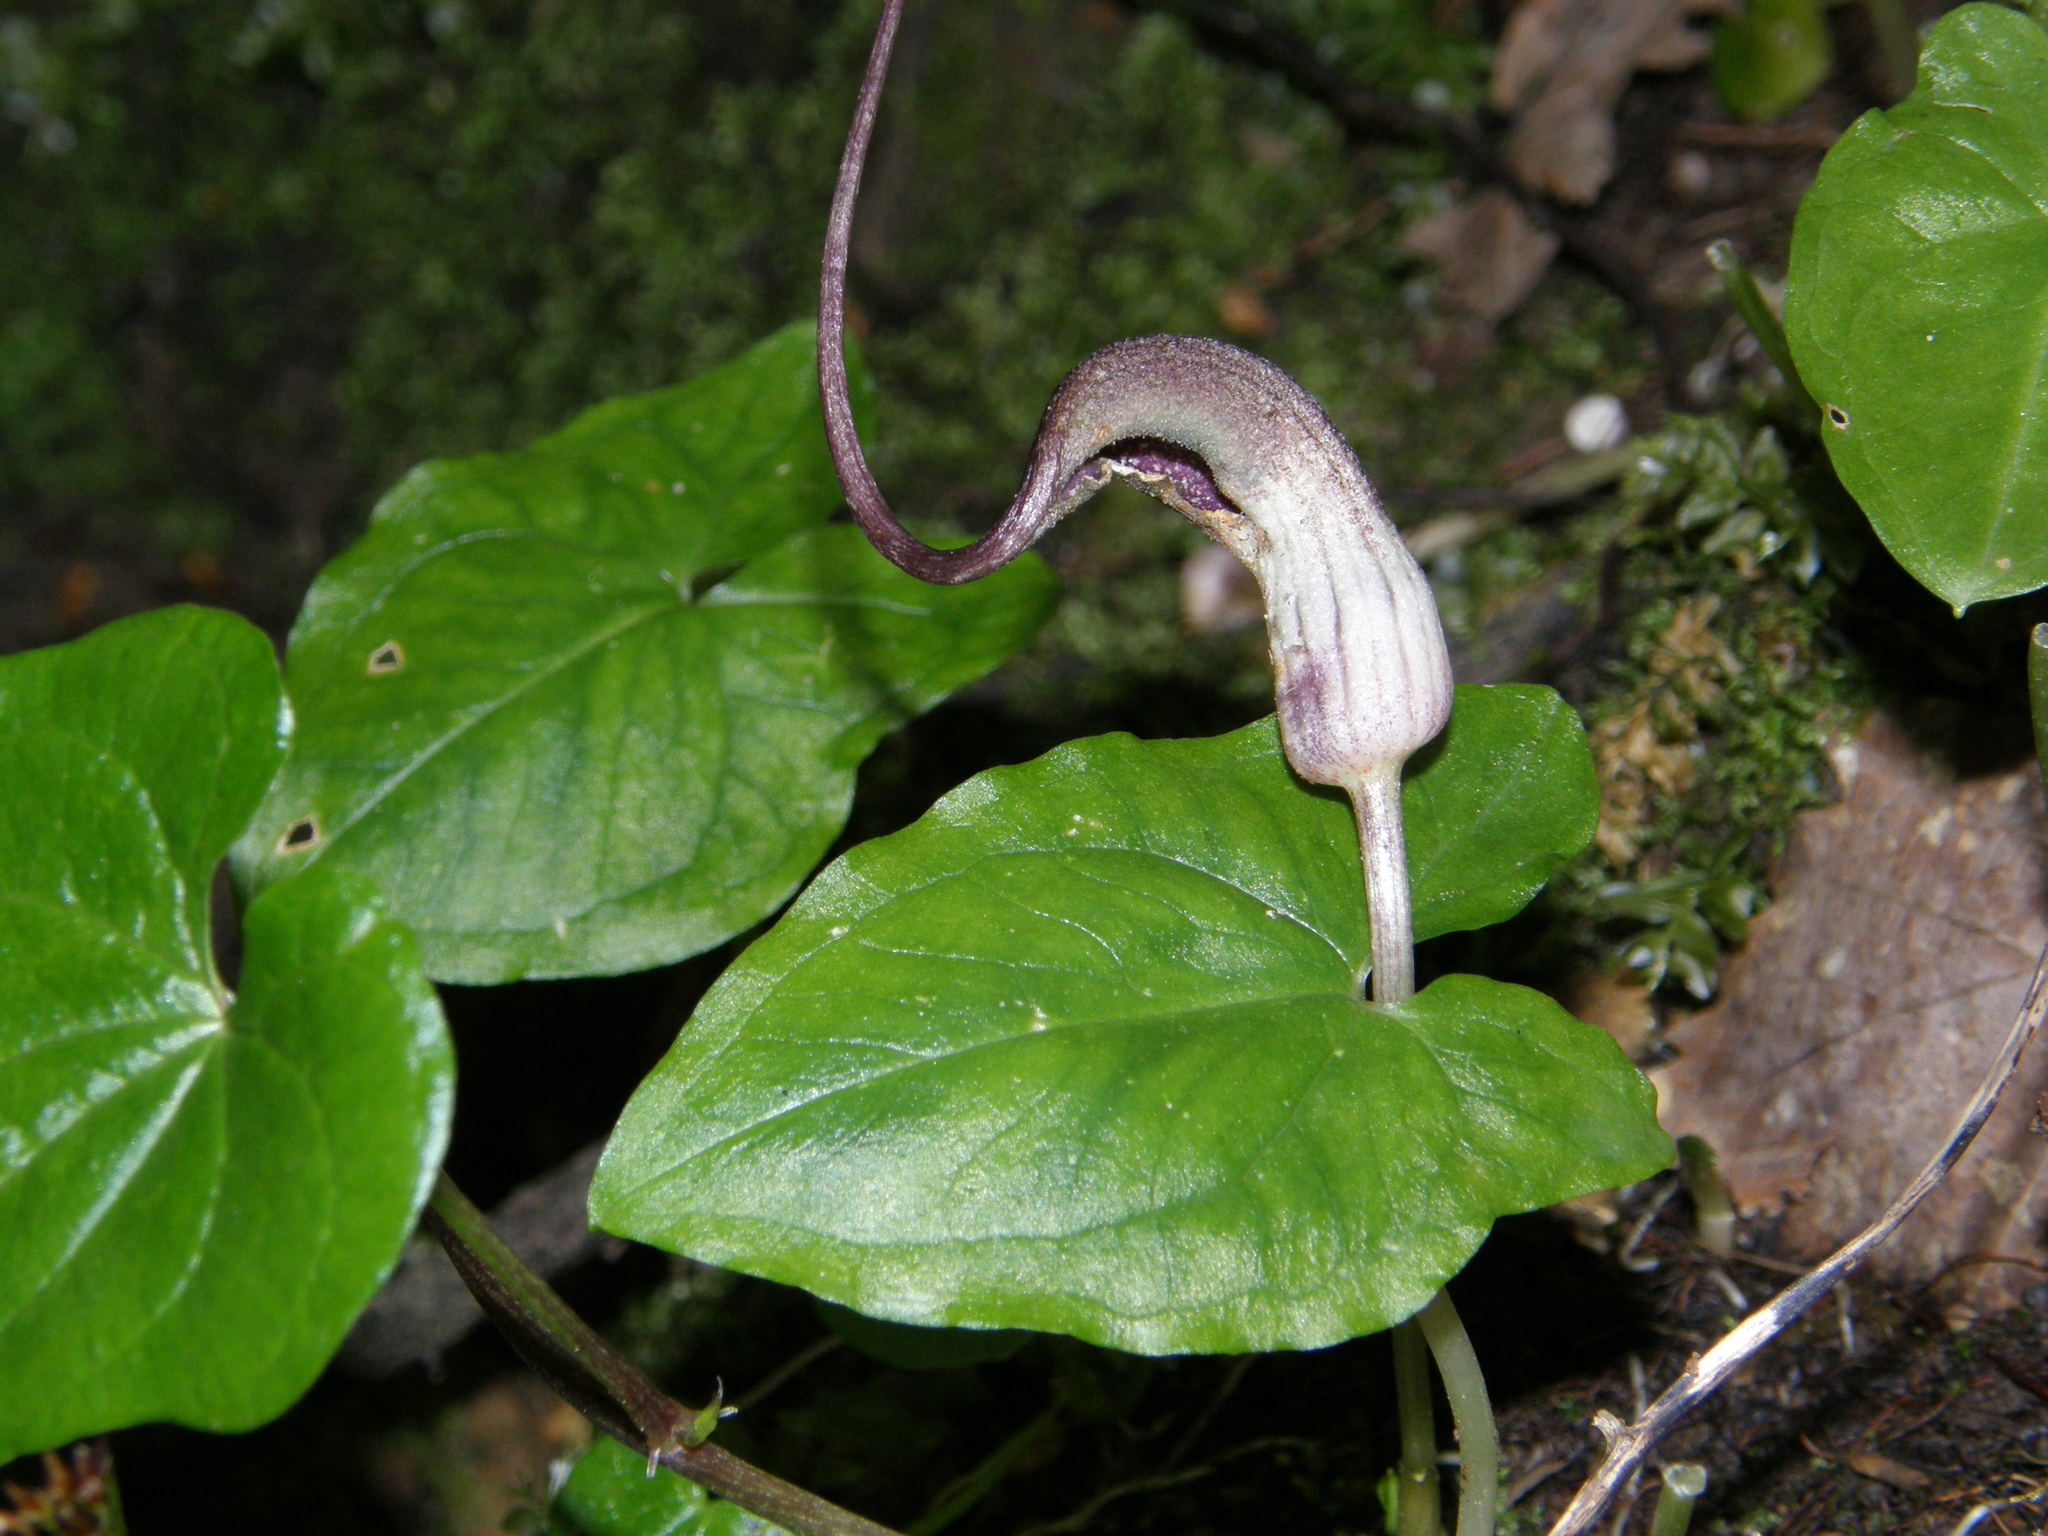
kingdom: Plantae
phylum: Tracheophyta
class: Liliopsida
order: Alismatales
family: Araceae
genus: Arisarum
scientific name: Arisarum proboscideum
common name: Mousetailplant
